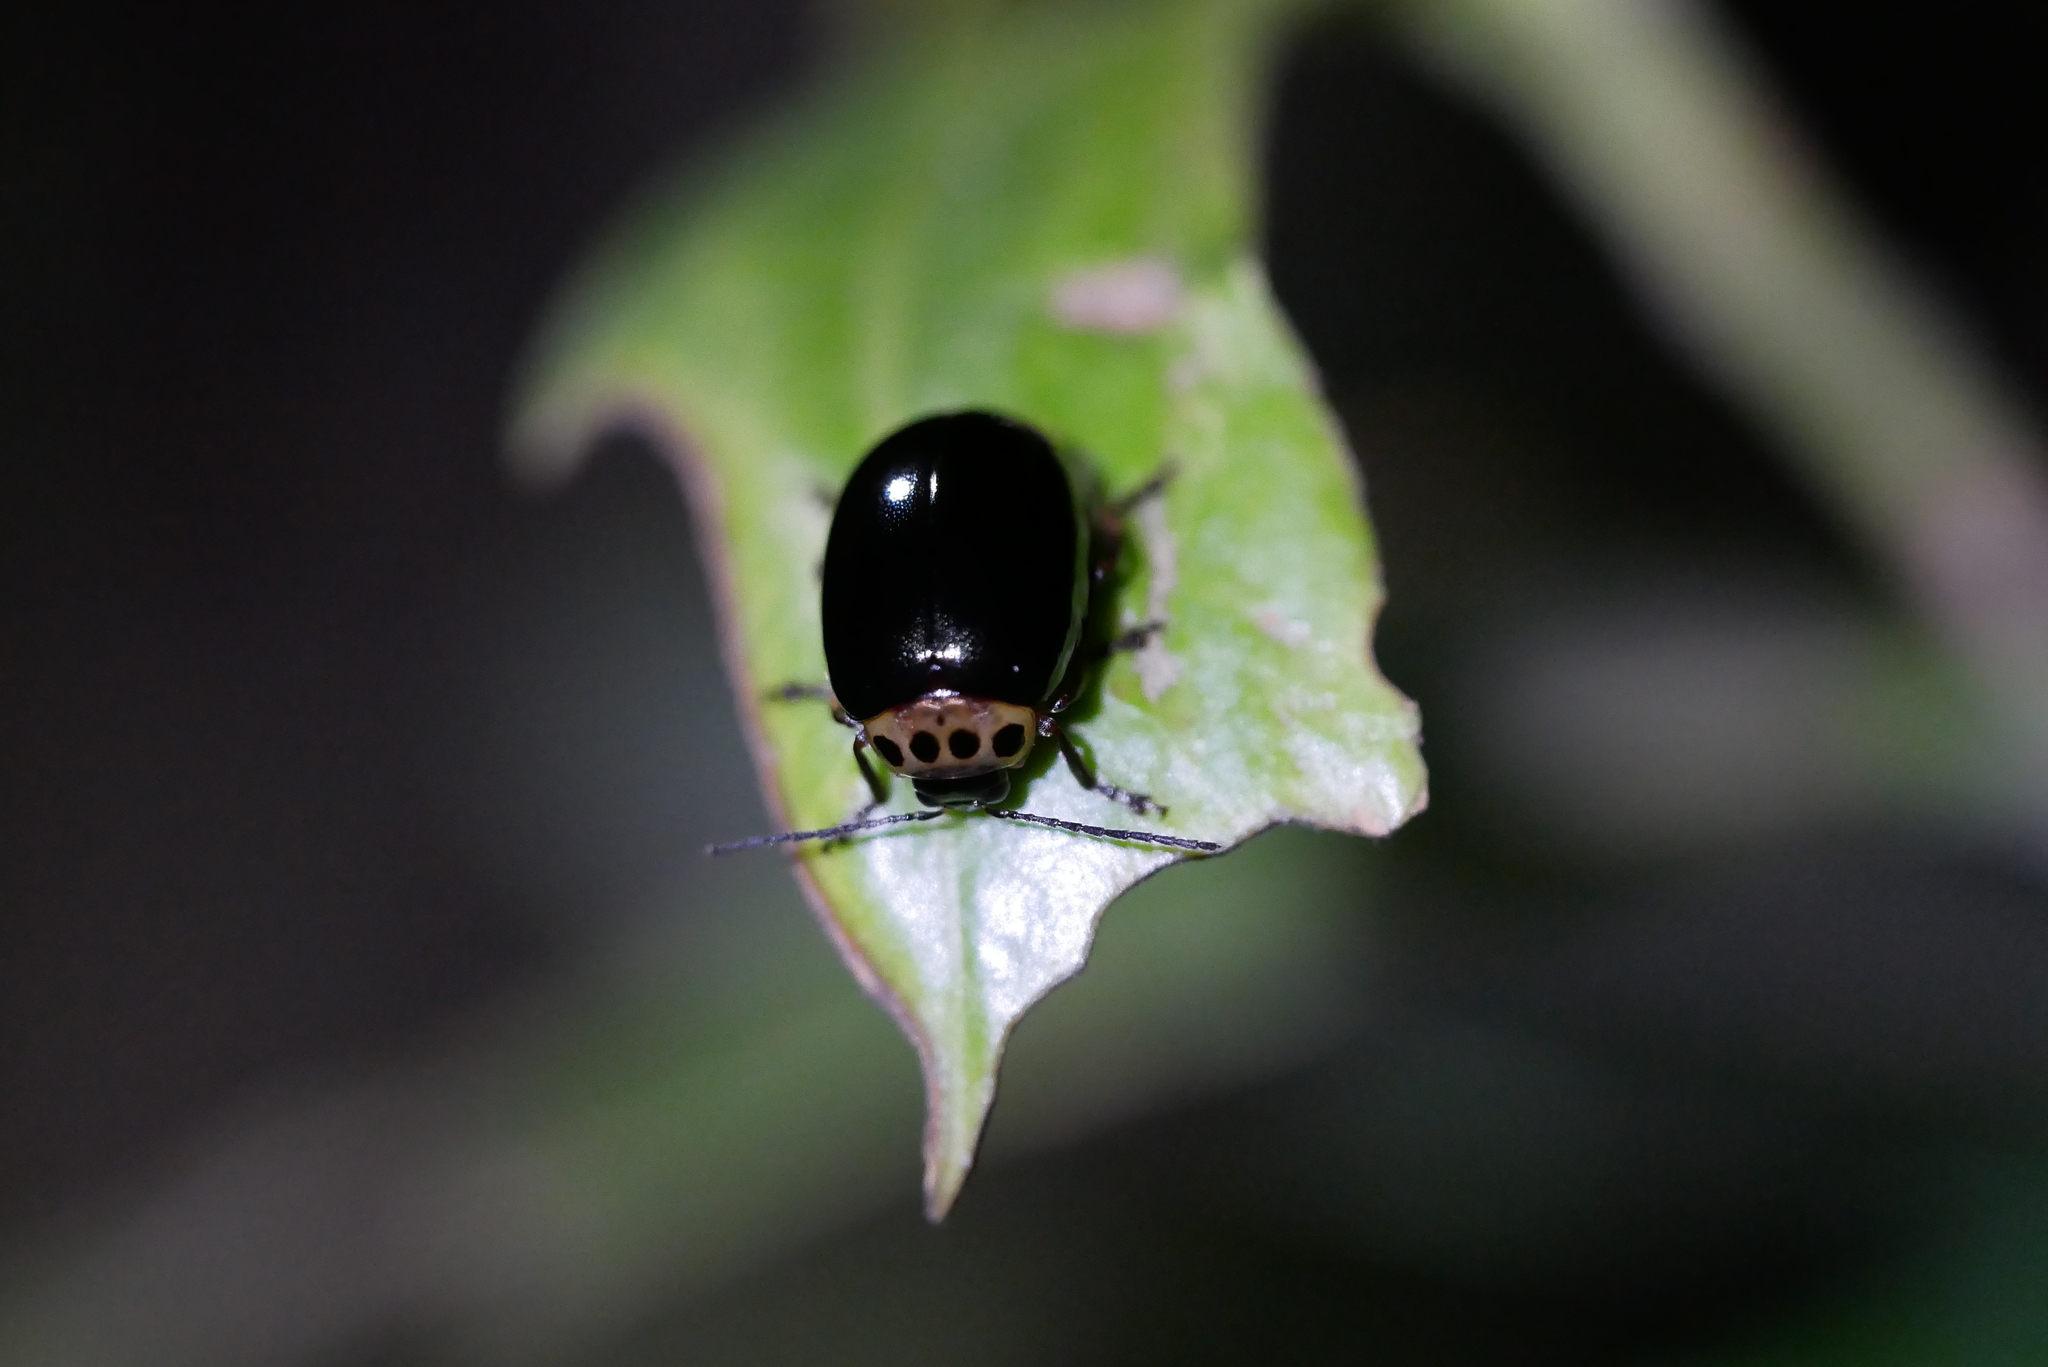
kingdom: Animalia
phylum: Arthropoda
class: Insecta
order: Coleoptera
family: Chrysomelidae
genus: Morphosphaera
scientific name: Morphosphaera chrysomeloides
